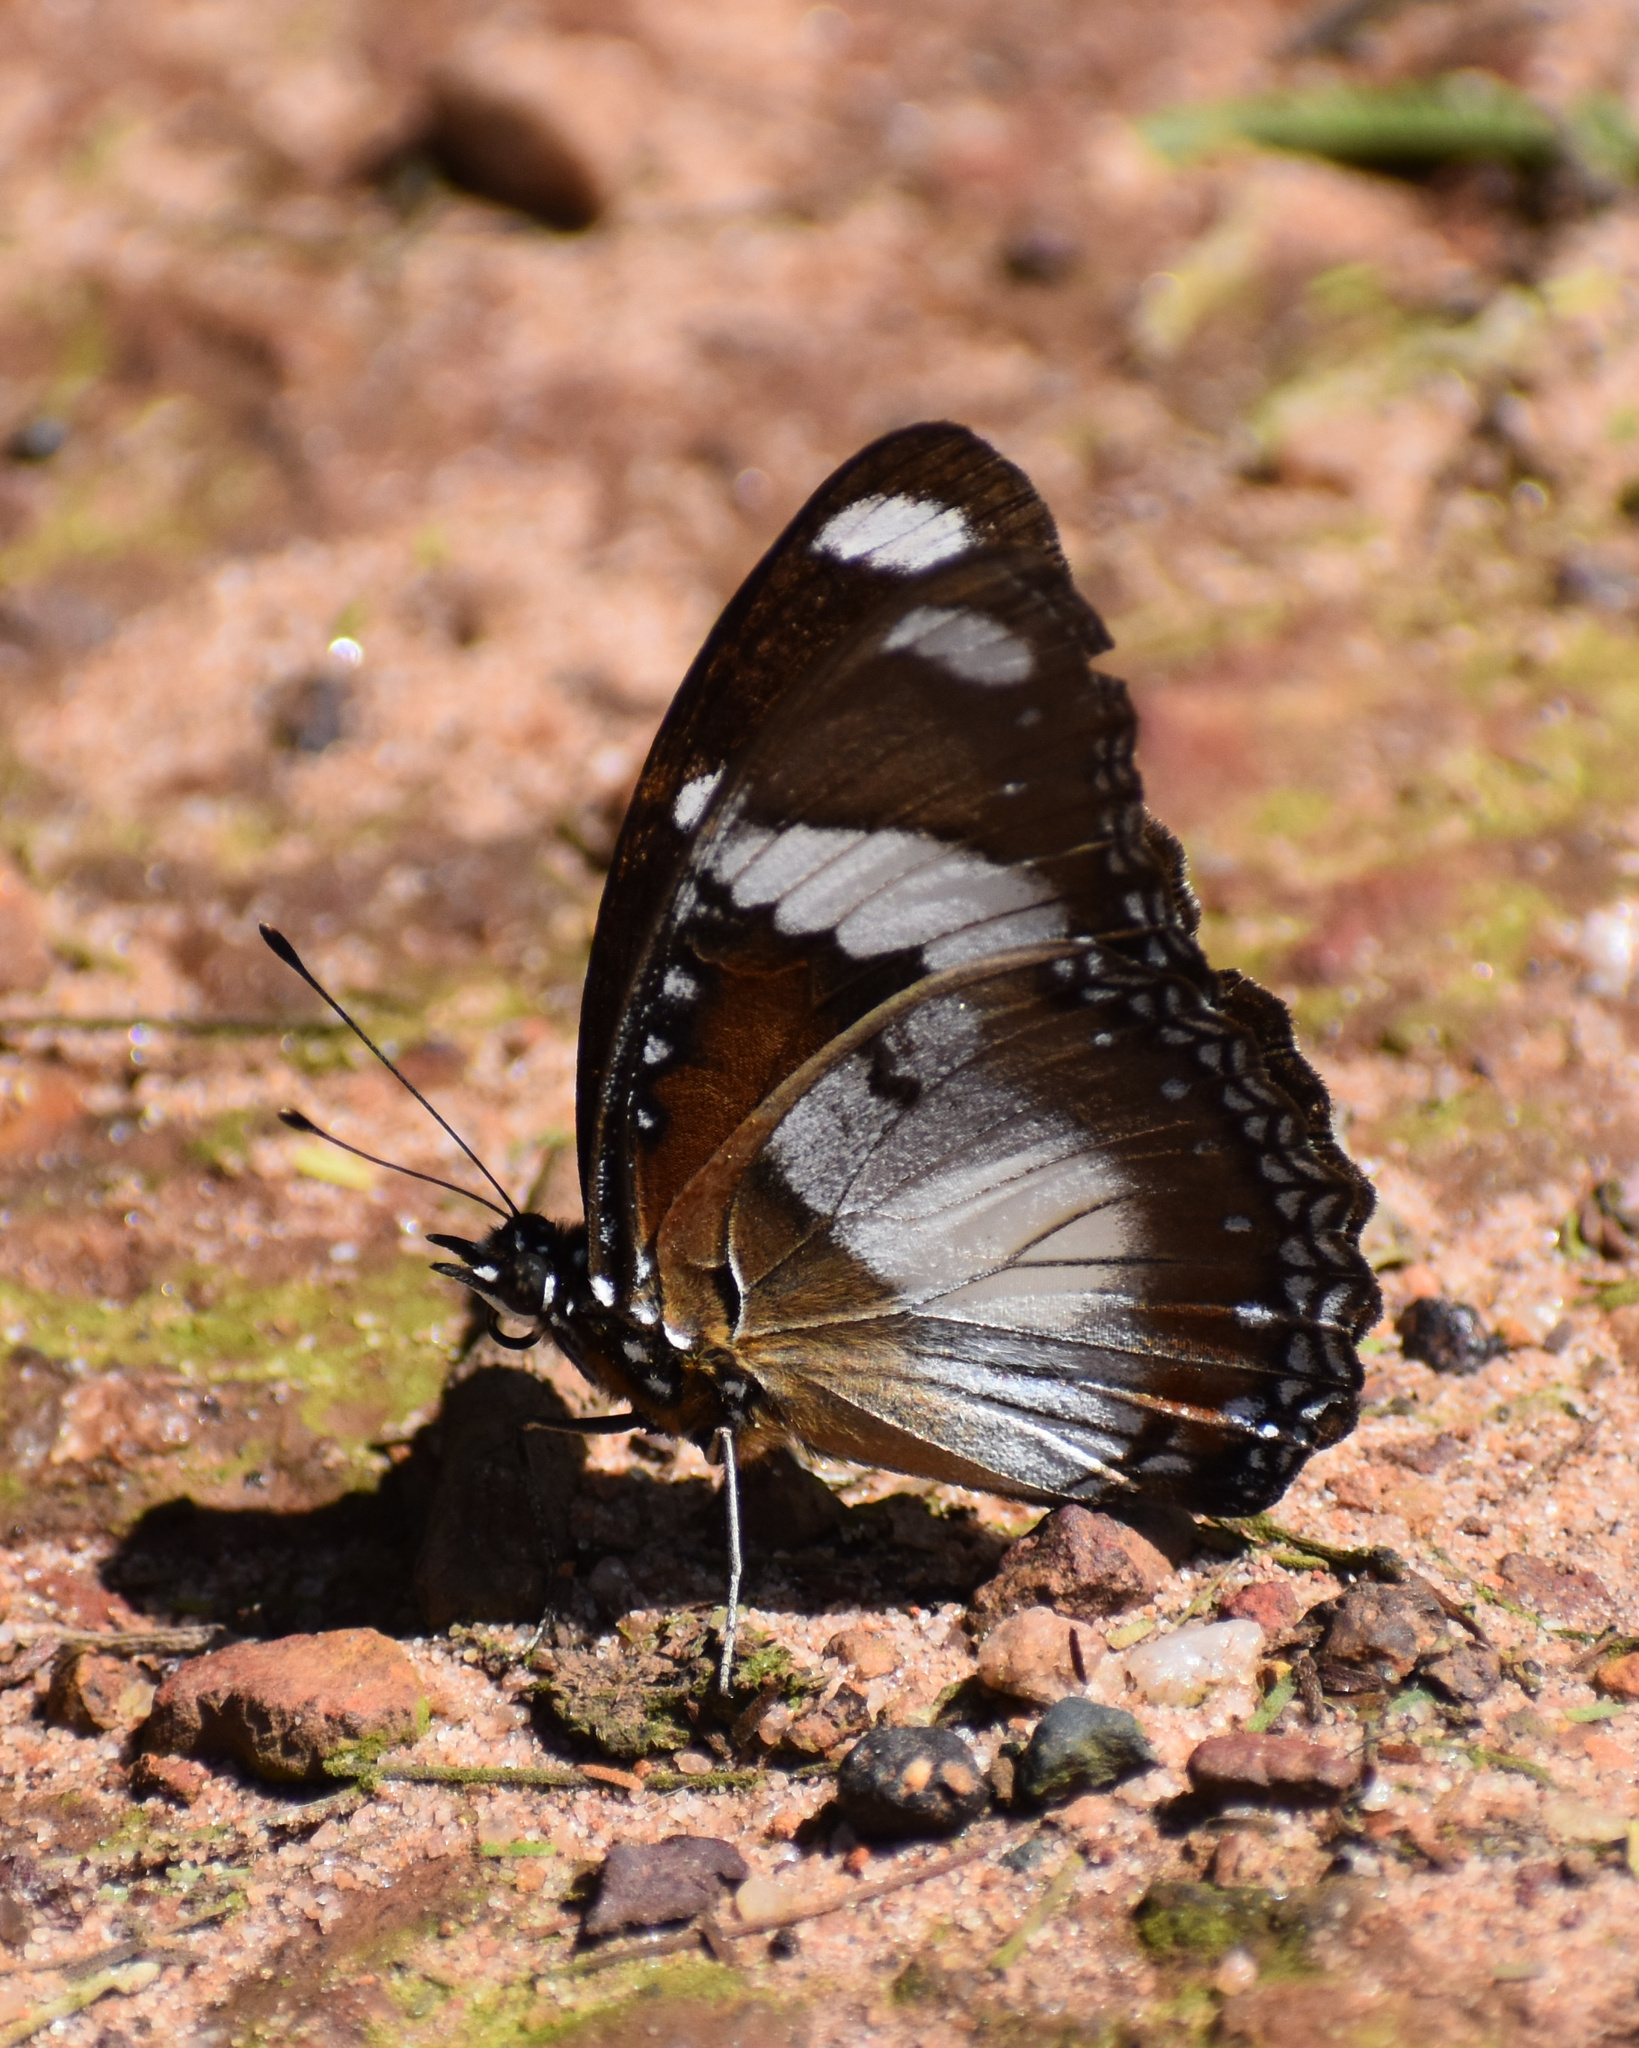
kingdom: Animalia
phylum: Arthropoda
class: Insecta
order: Lepidoptera
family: Nymphalidae
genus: Hypolimnas
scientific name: Hypolimnas misippus
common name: False plain tiger
